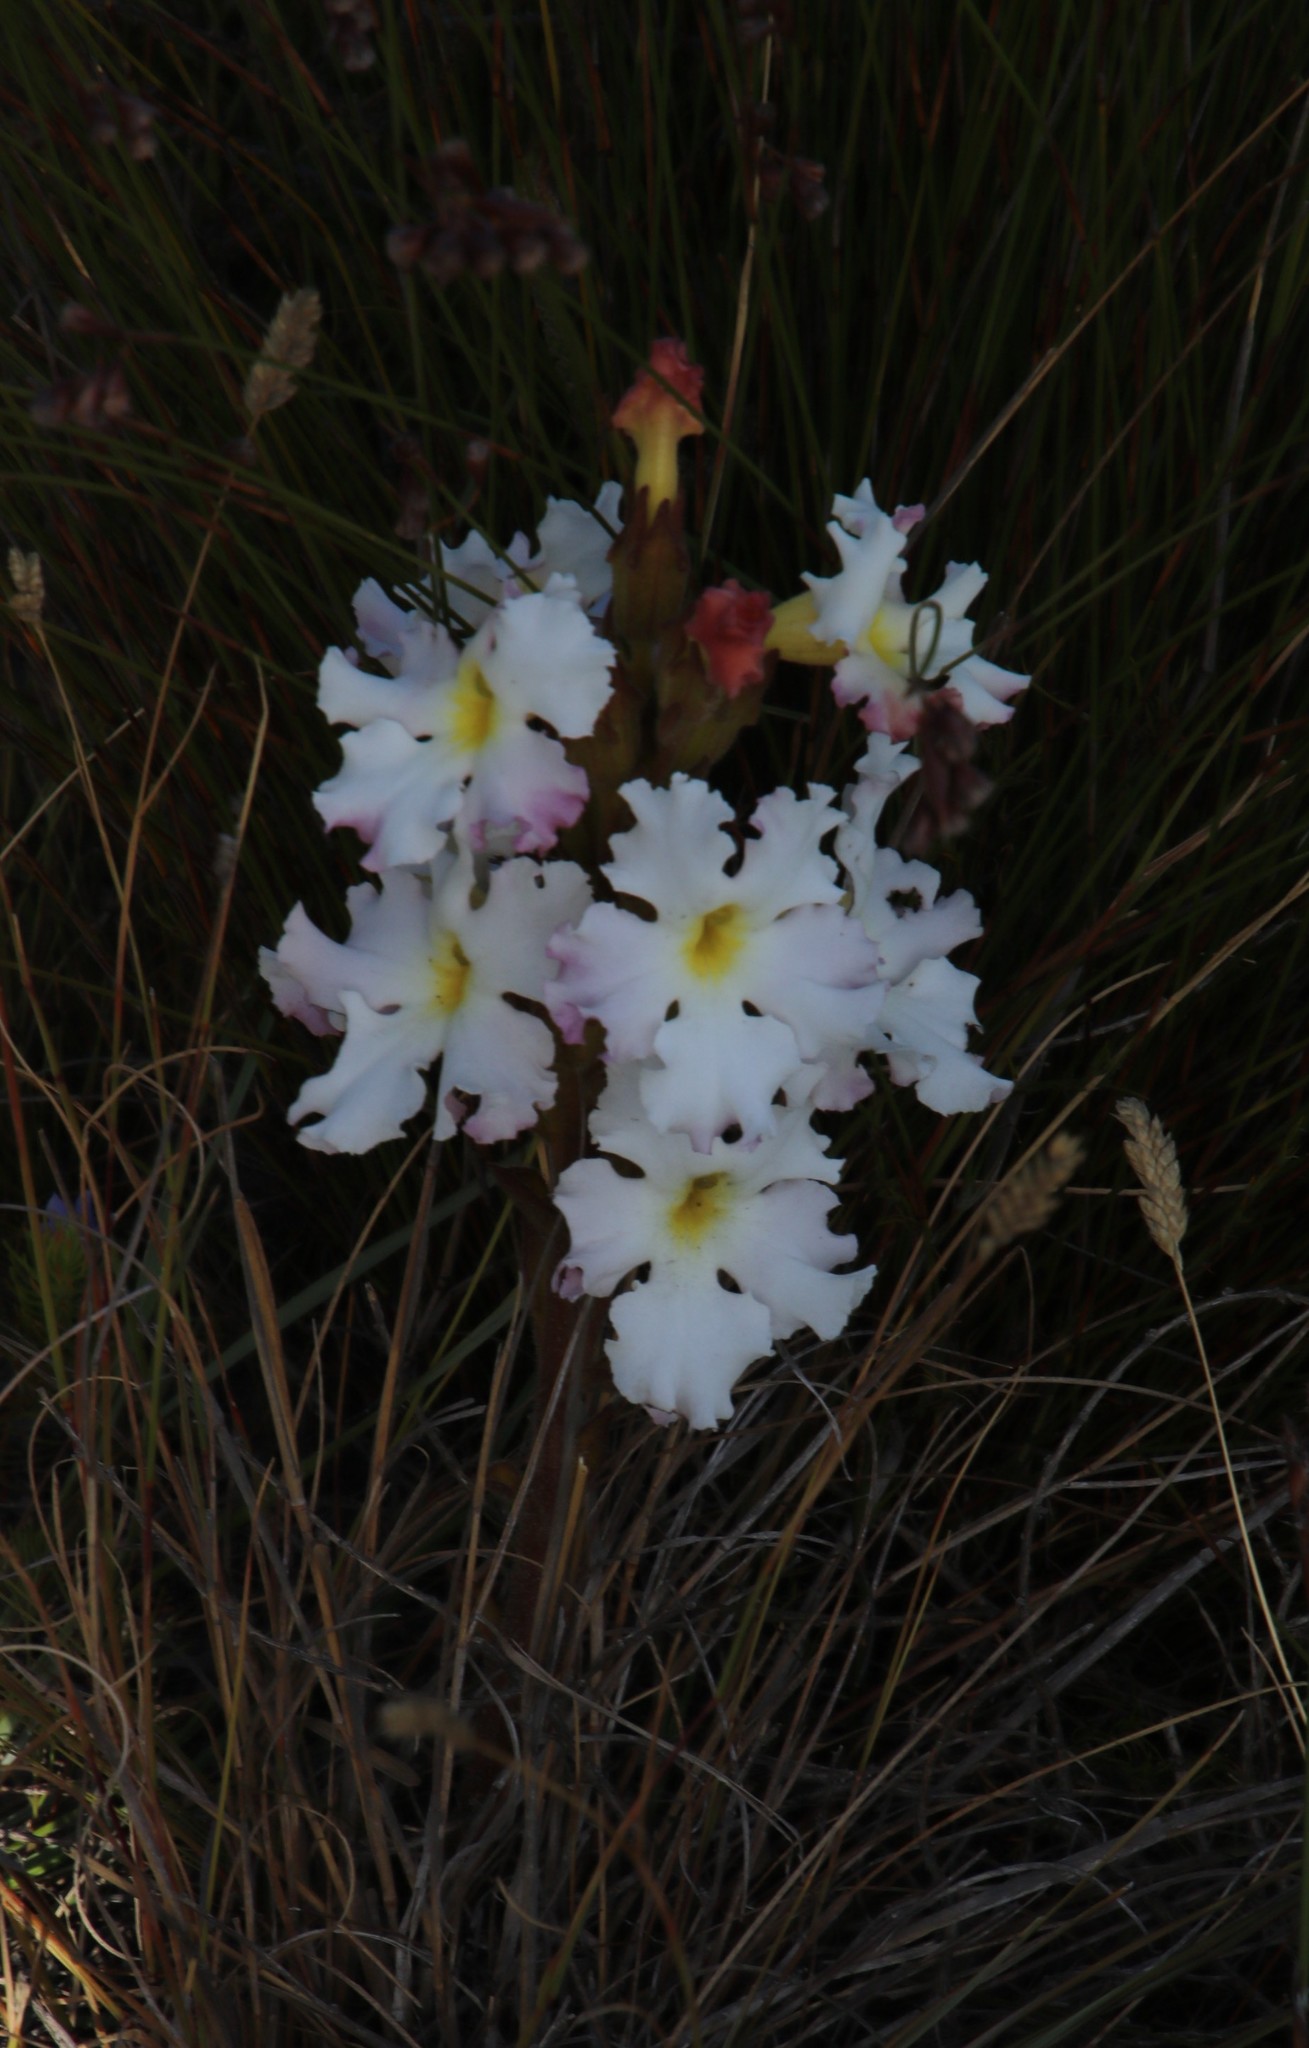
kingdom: Plantae
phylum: Tracheophyta
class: Magnoliopsida
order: Lamiales
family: Orobanchaceae
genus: Harveya
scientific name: Harveya capensis
